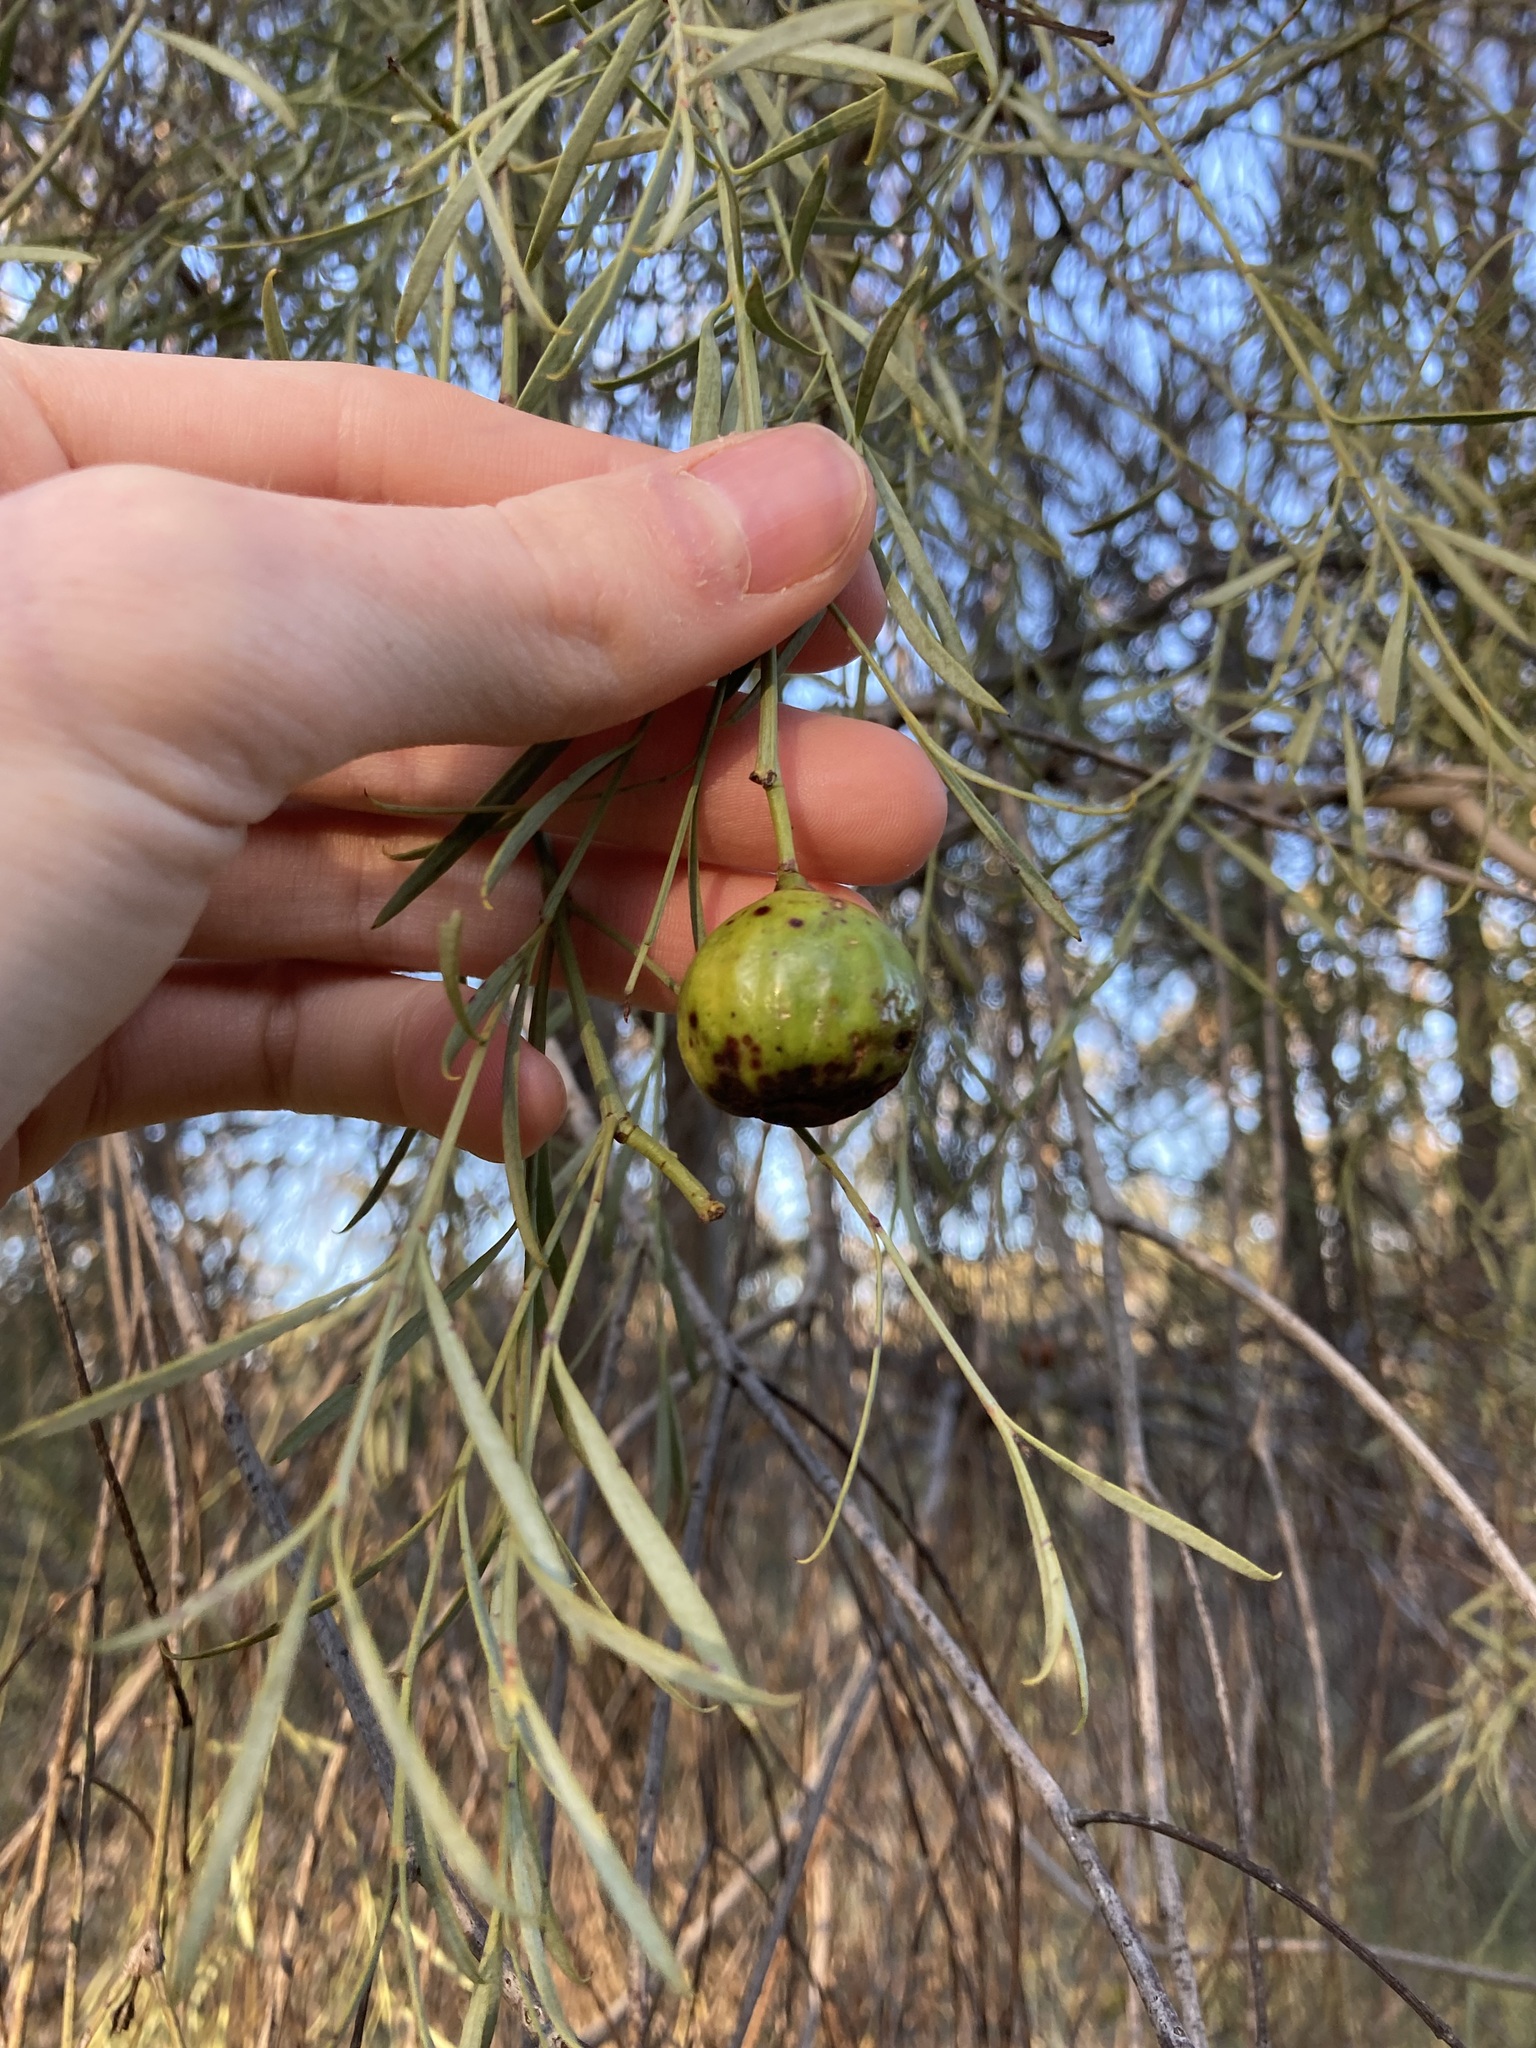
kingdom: Plantae
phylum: Tracheophyta
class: Magnoliopsida
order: Santalales
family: Santalaceae
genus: Santalum
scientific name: Santalum murrayanum
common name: Bitter quandong
